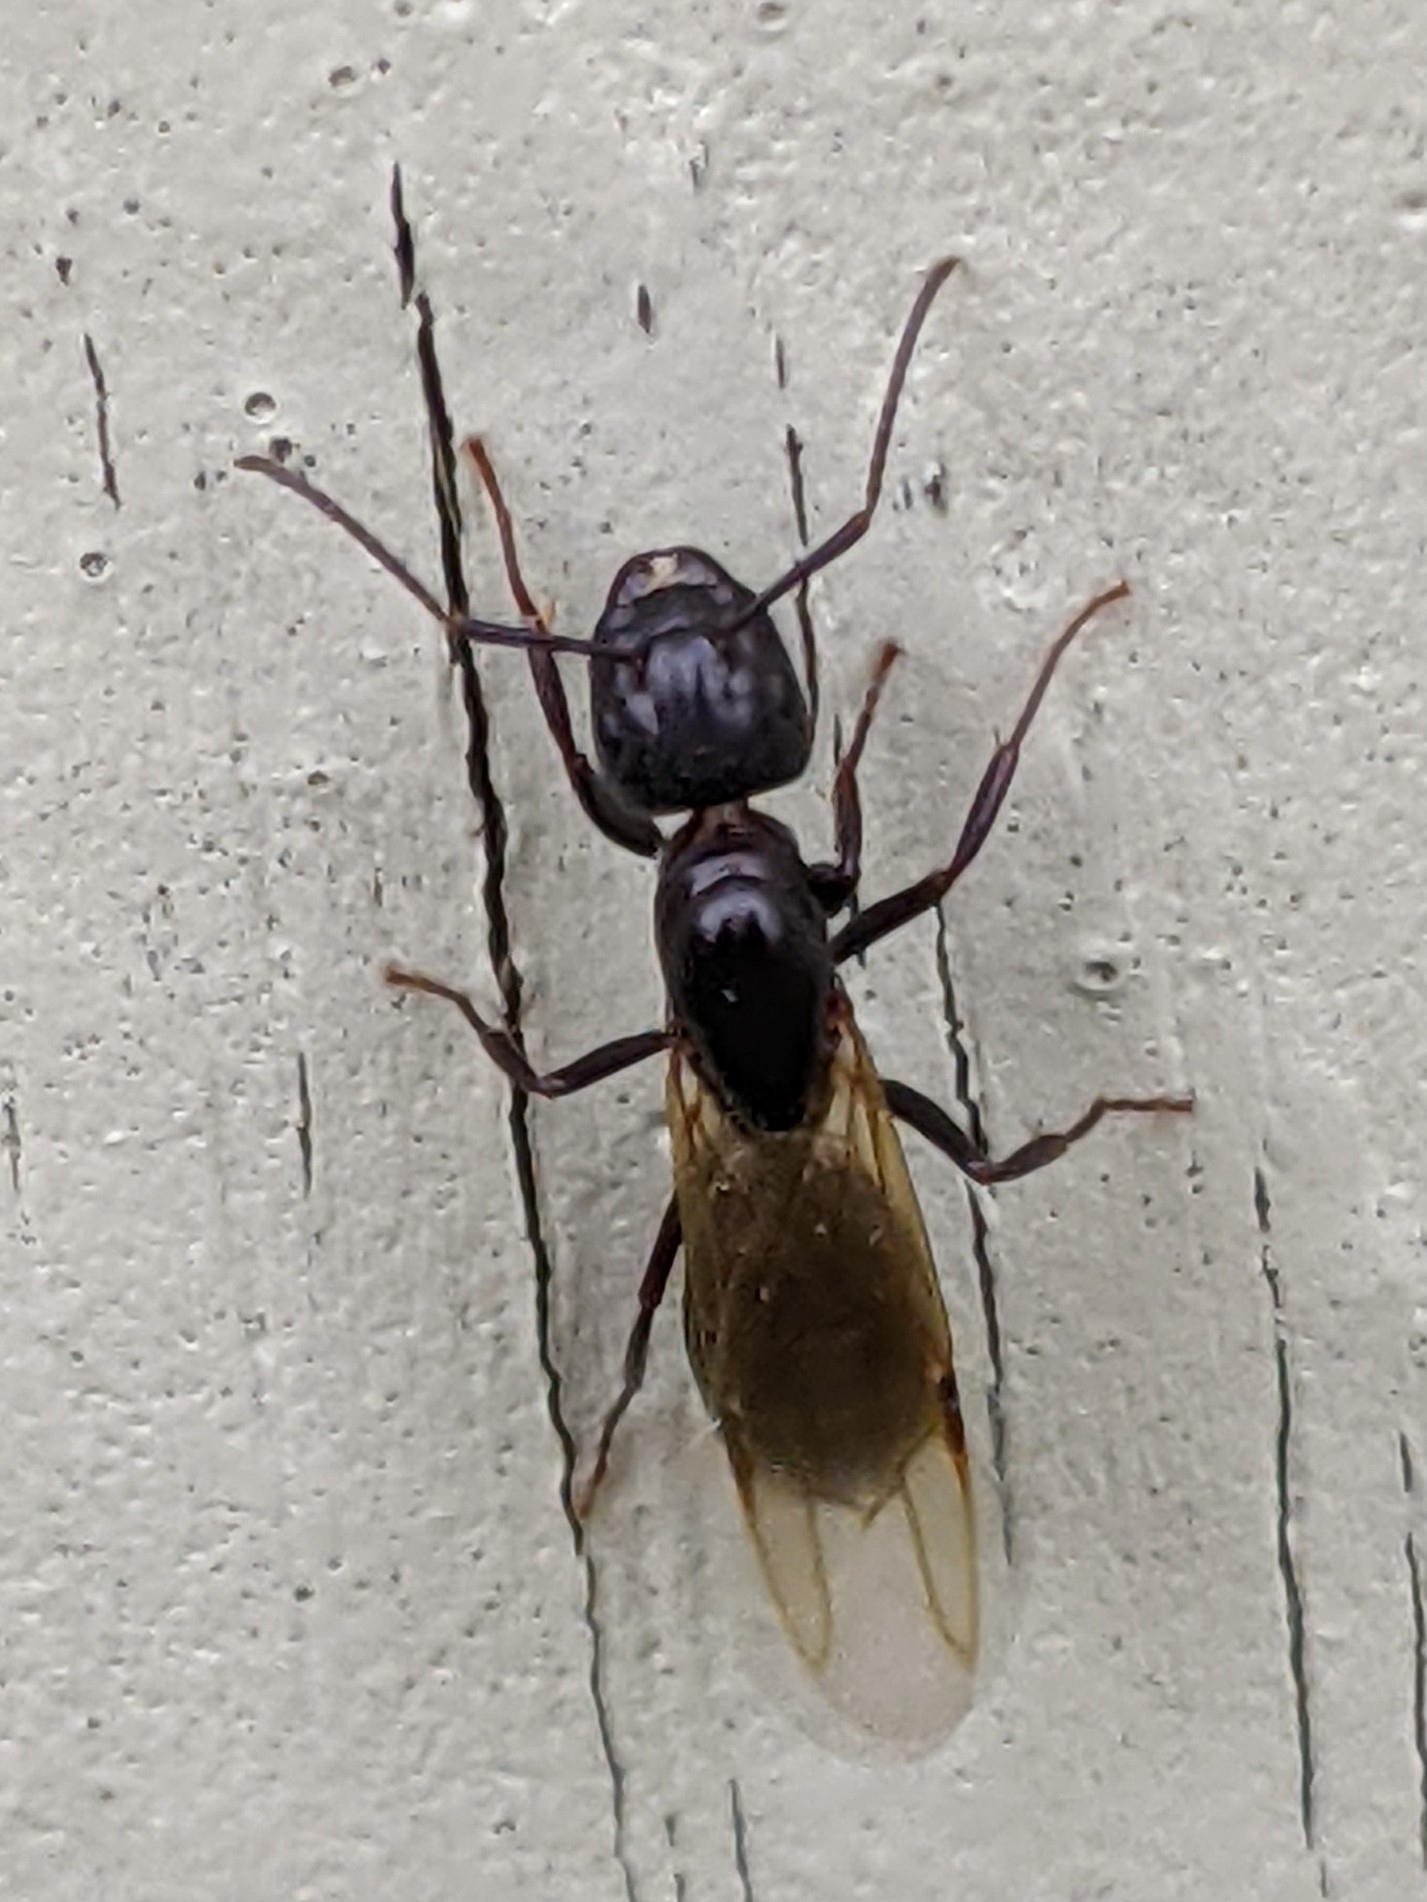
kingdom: Animalia
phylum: Arthropoda
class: Insecta
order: Hymenoptera
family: Formicidae
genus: Camponotus
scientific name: Camponotus pennsylvanicus
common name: Black carpenter ant
